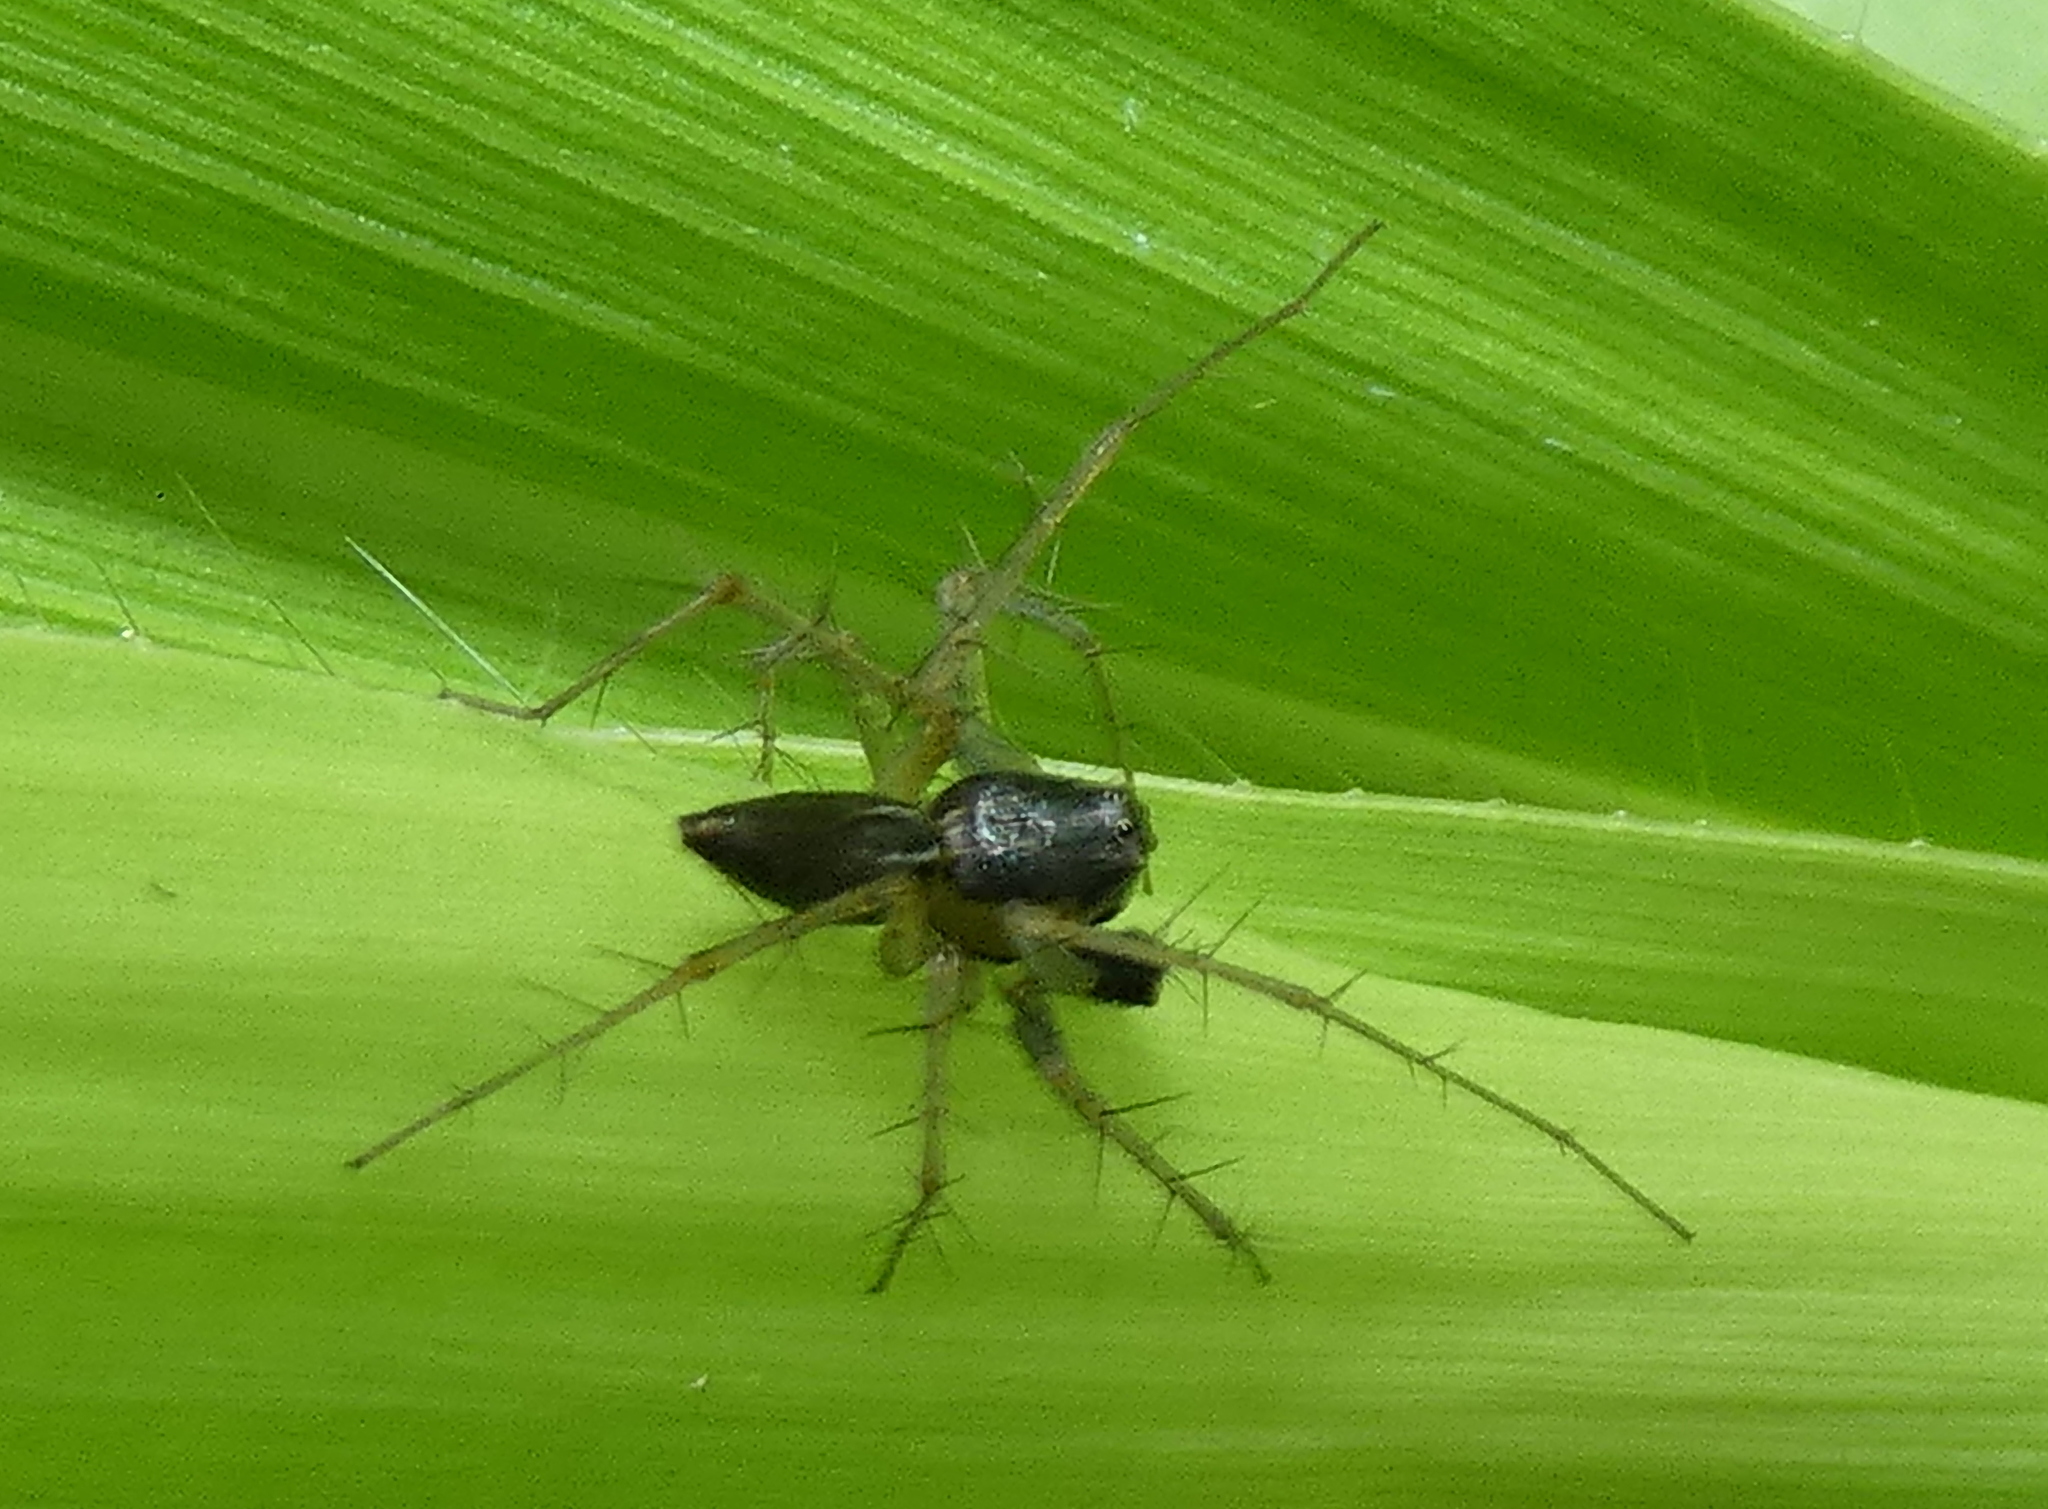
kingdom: Animalia
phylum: Arthropoda
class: Arachnida
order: Araneae
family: Oxyopidae
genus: Oxyopes
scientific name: Oxyopes salticus
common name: Lynx spiders
